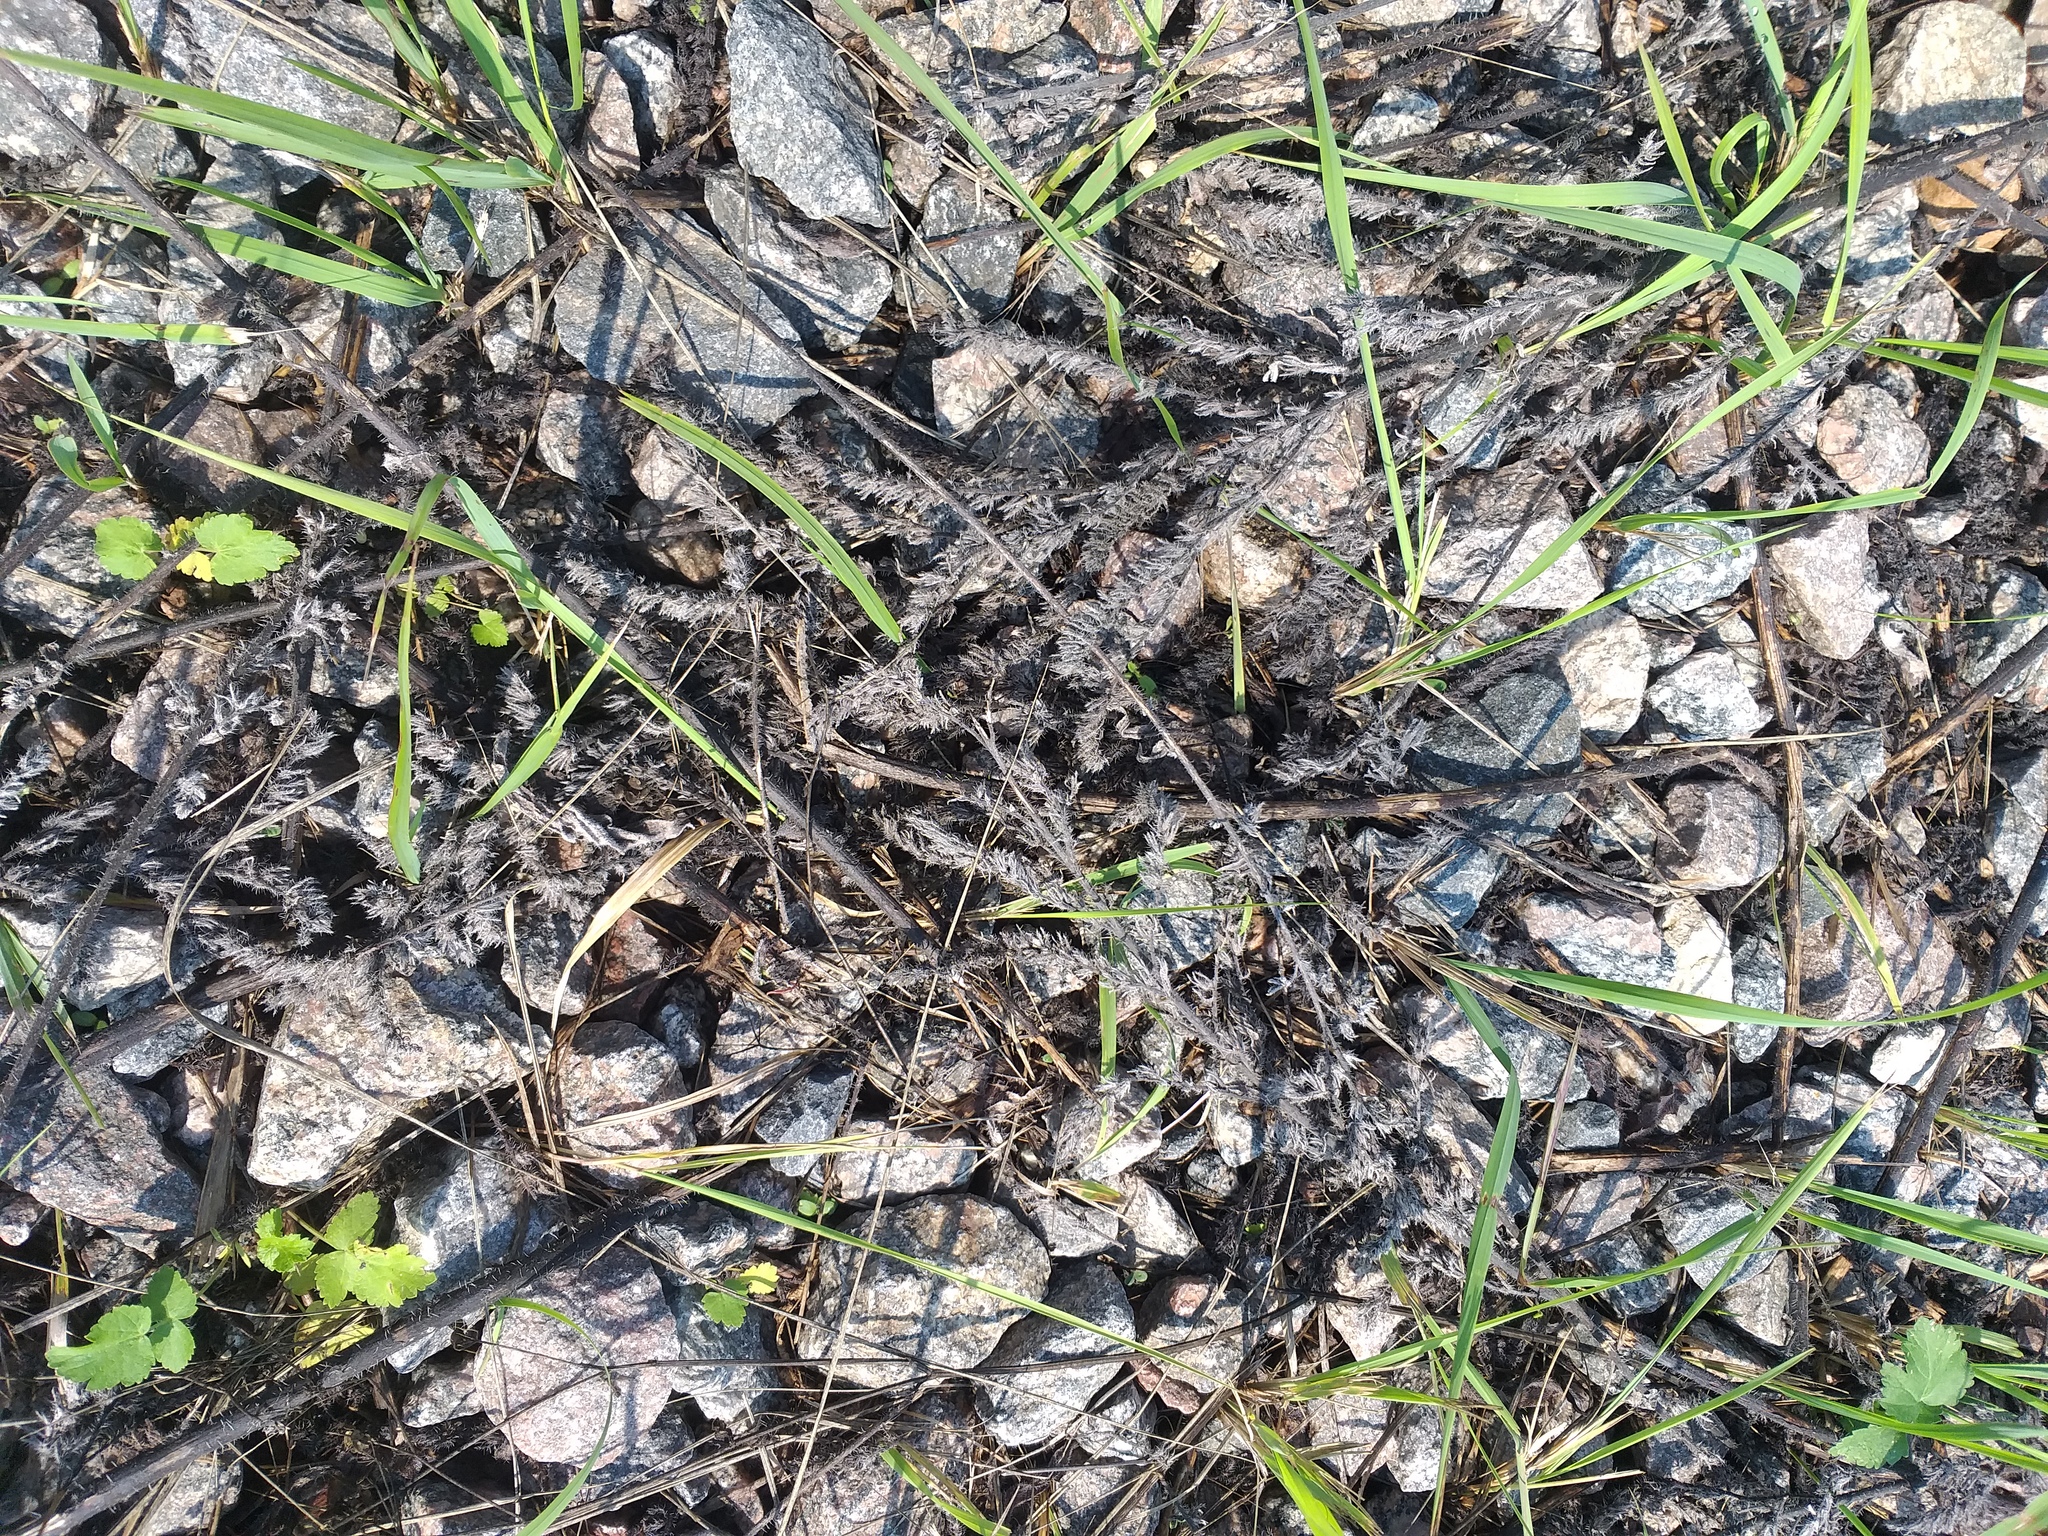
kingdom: Plantae
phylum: Tracheophyta
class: Magnoliopsida
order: Boraginales
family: Boraginaceae
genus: Echium
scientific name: Echium vulgare
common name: Common viper's bugloss
